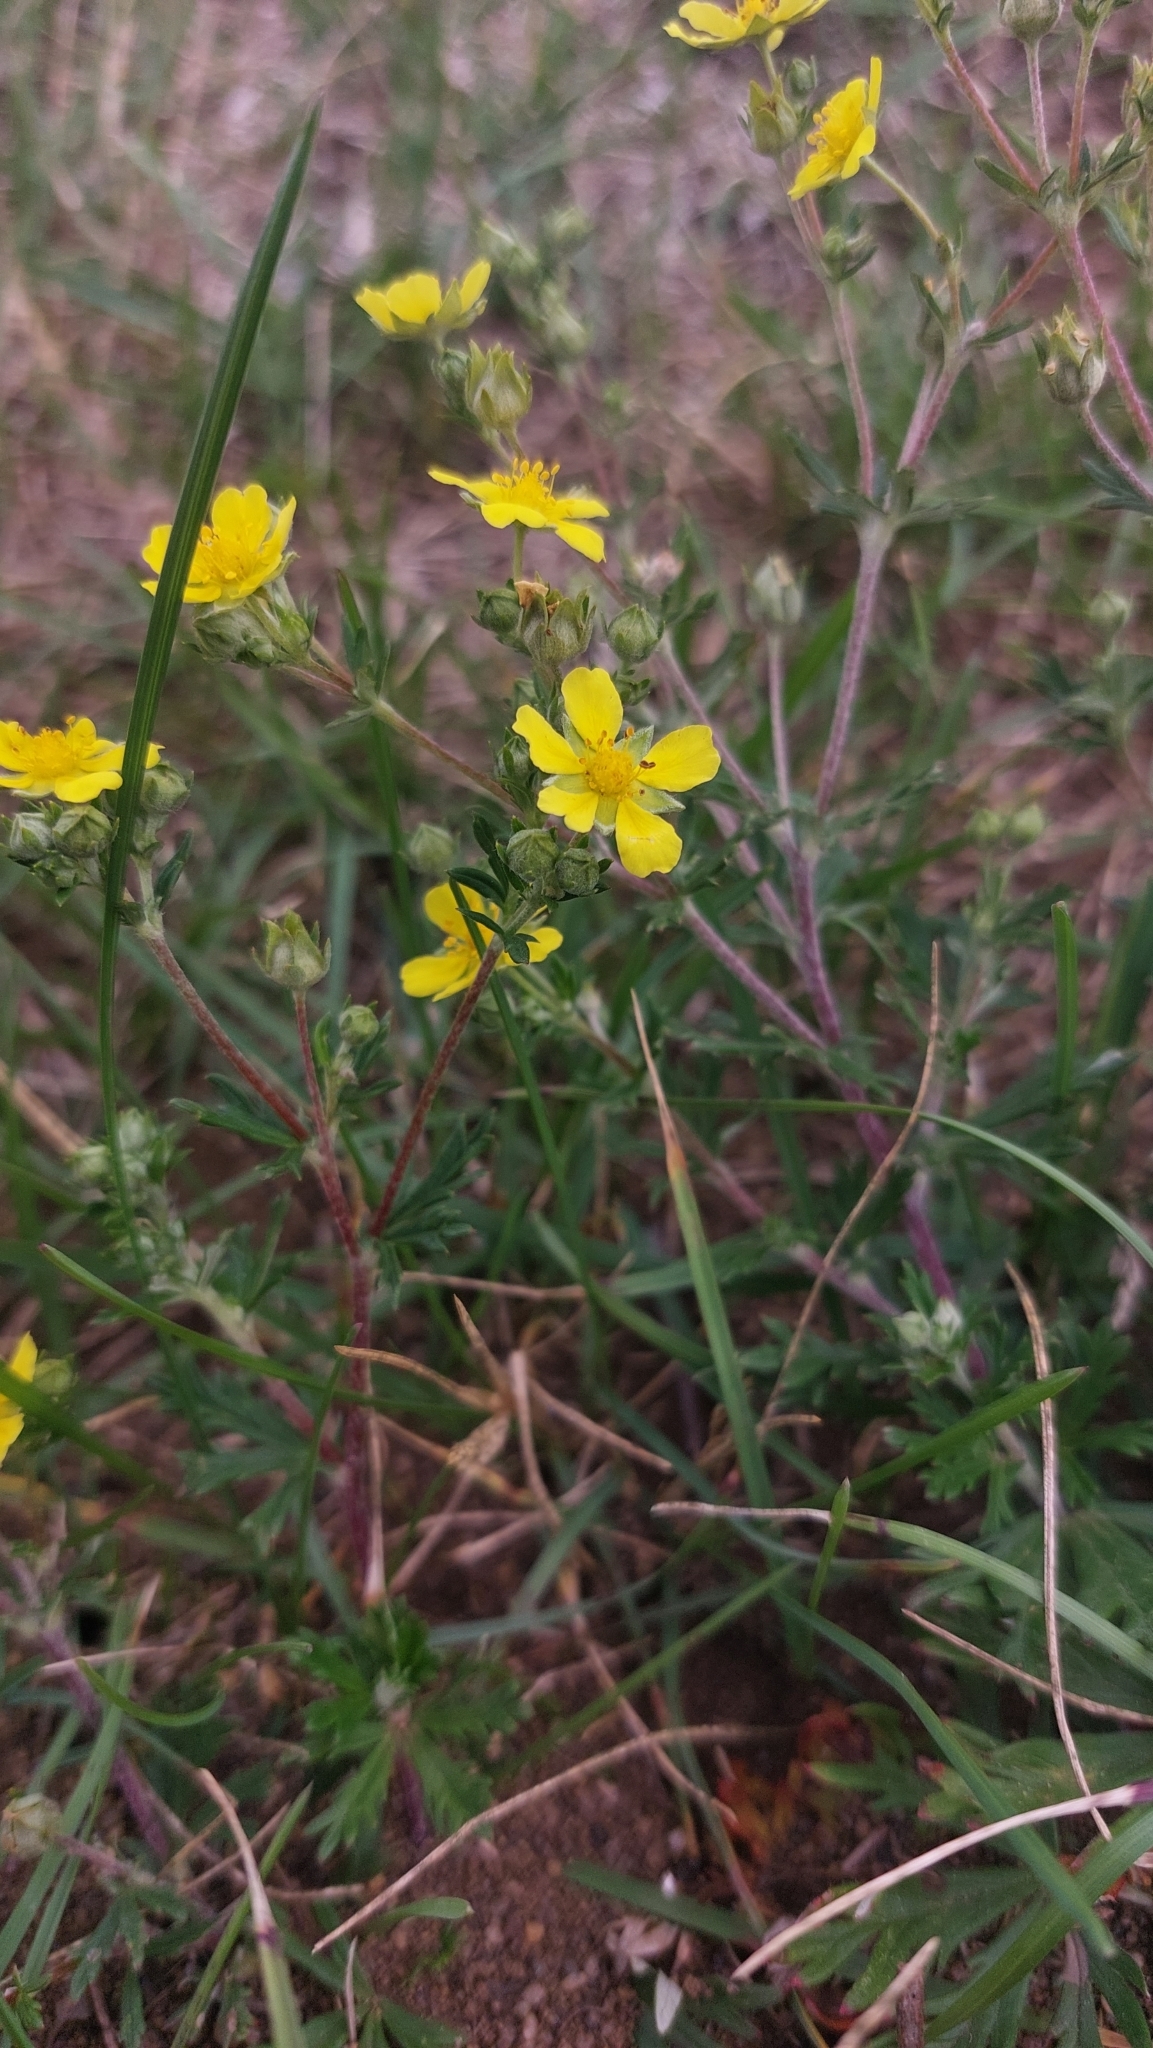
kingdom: Plantae
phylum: Tracheophyta
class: Magnoliopsida
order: Rosales
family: Rosaceae
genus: Potentilla
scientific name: Potentilla argentea
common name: Hoary cinquefoil
